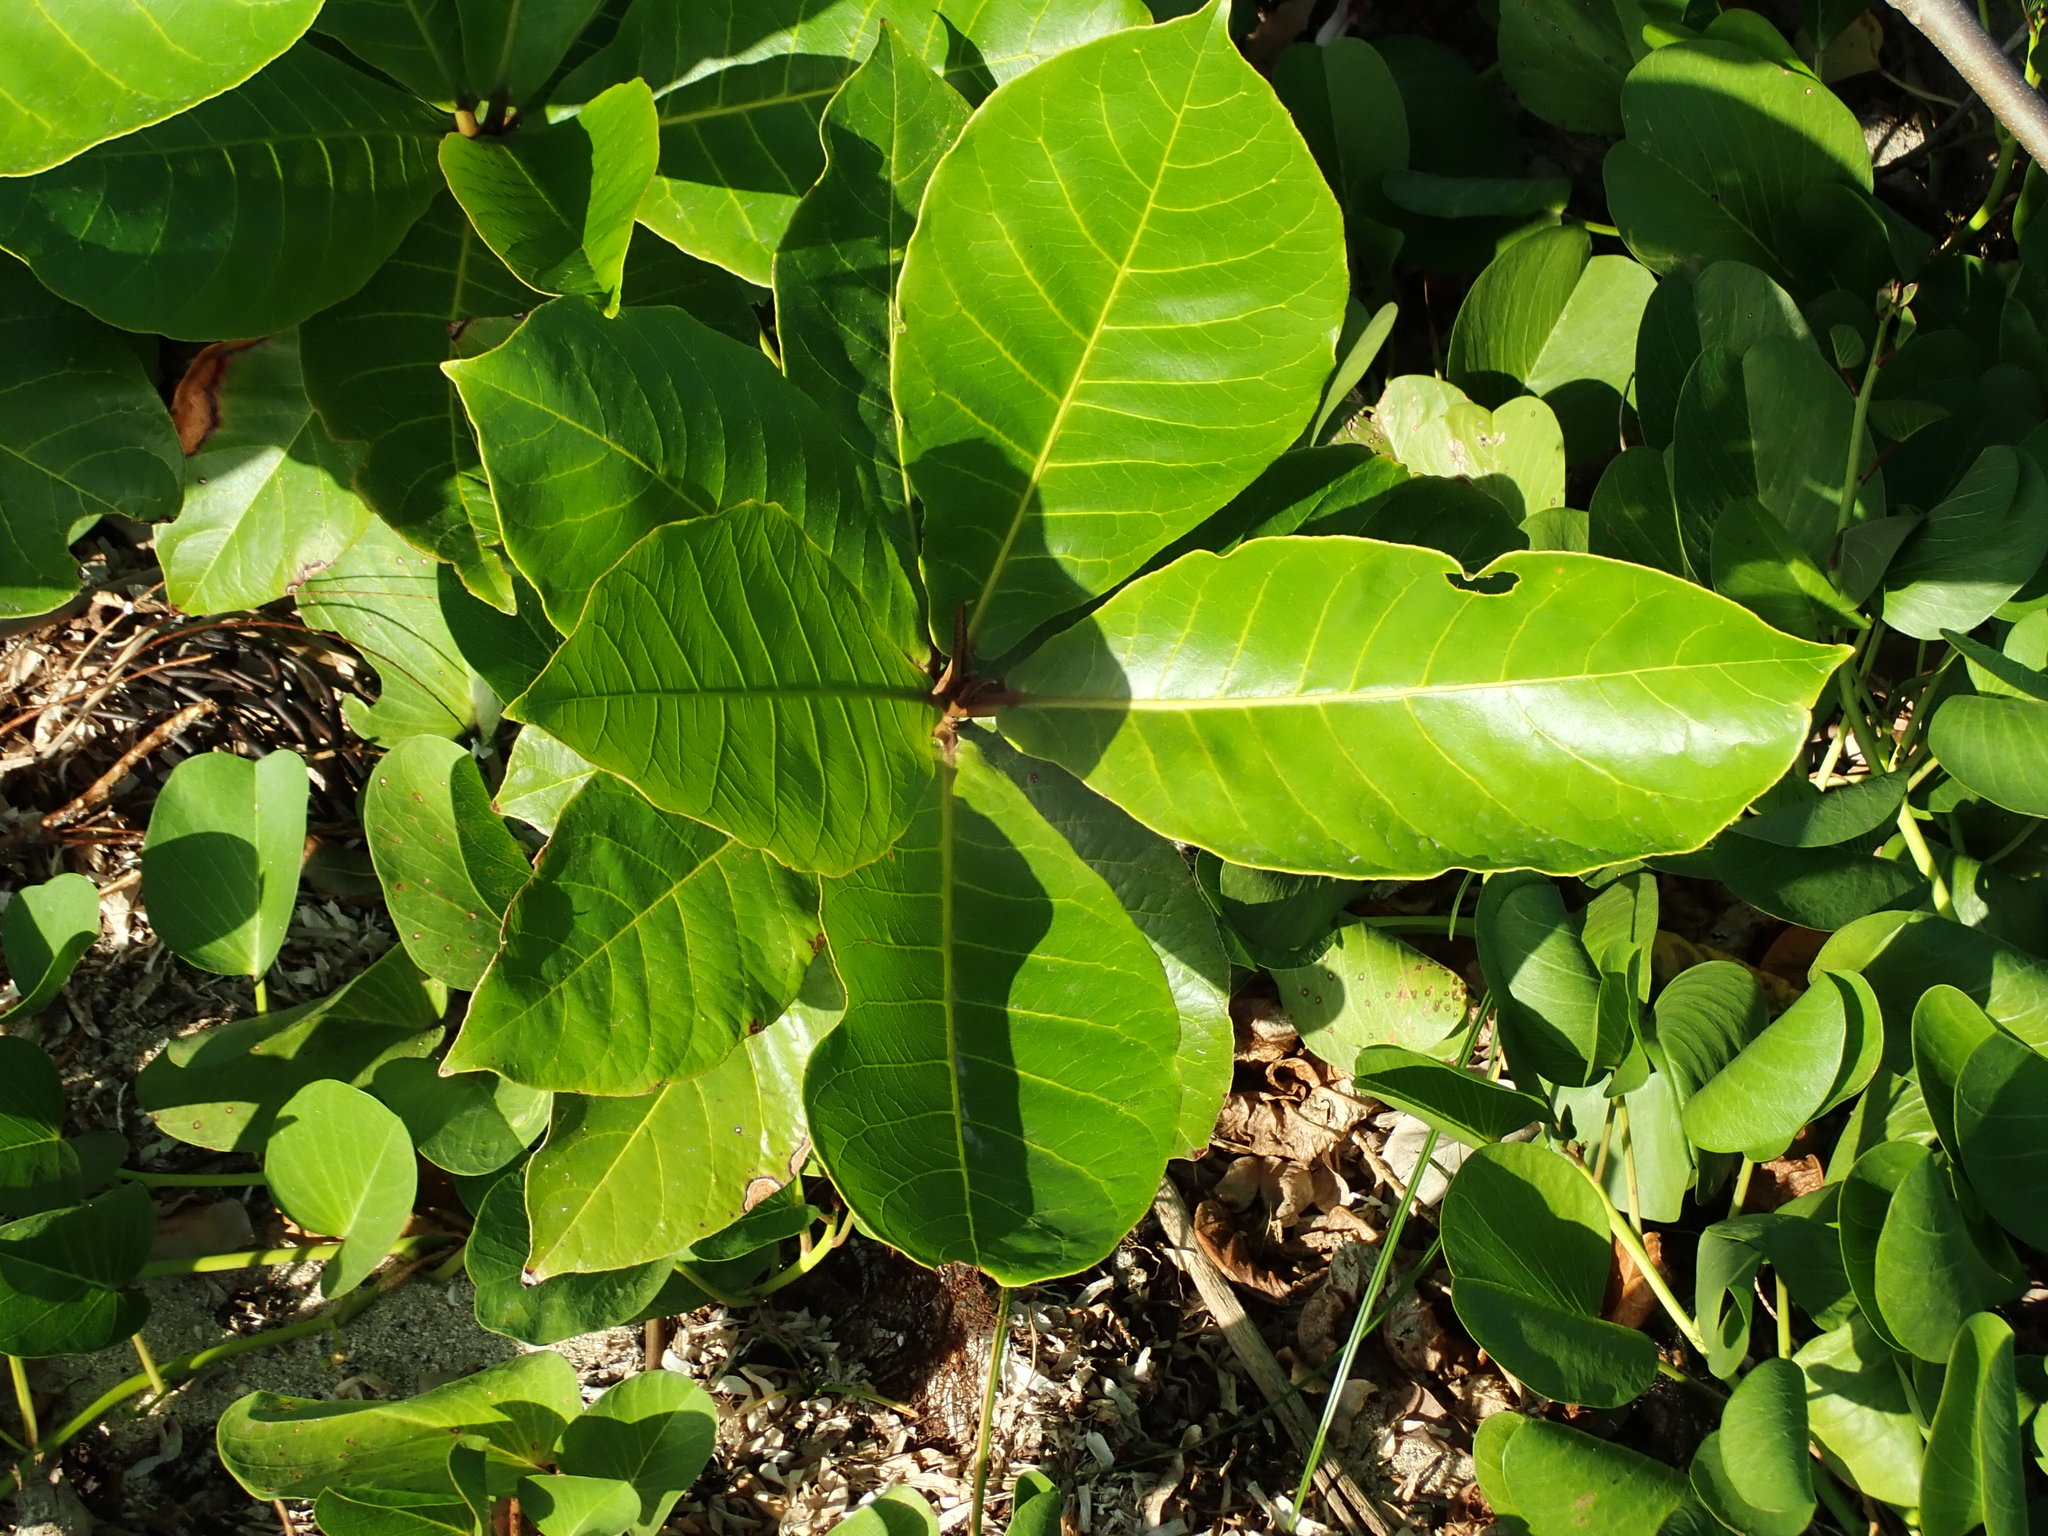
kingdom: Plantae
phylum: Tracheophyta
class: Magnoliopsida
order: Myrtales
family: Combretaceae
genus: Terminalia
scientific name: Terminalia catappa
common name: Tropical almond
